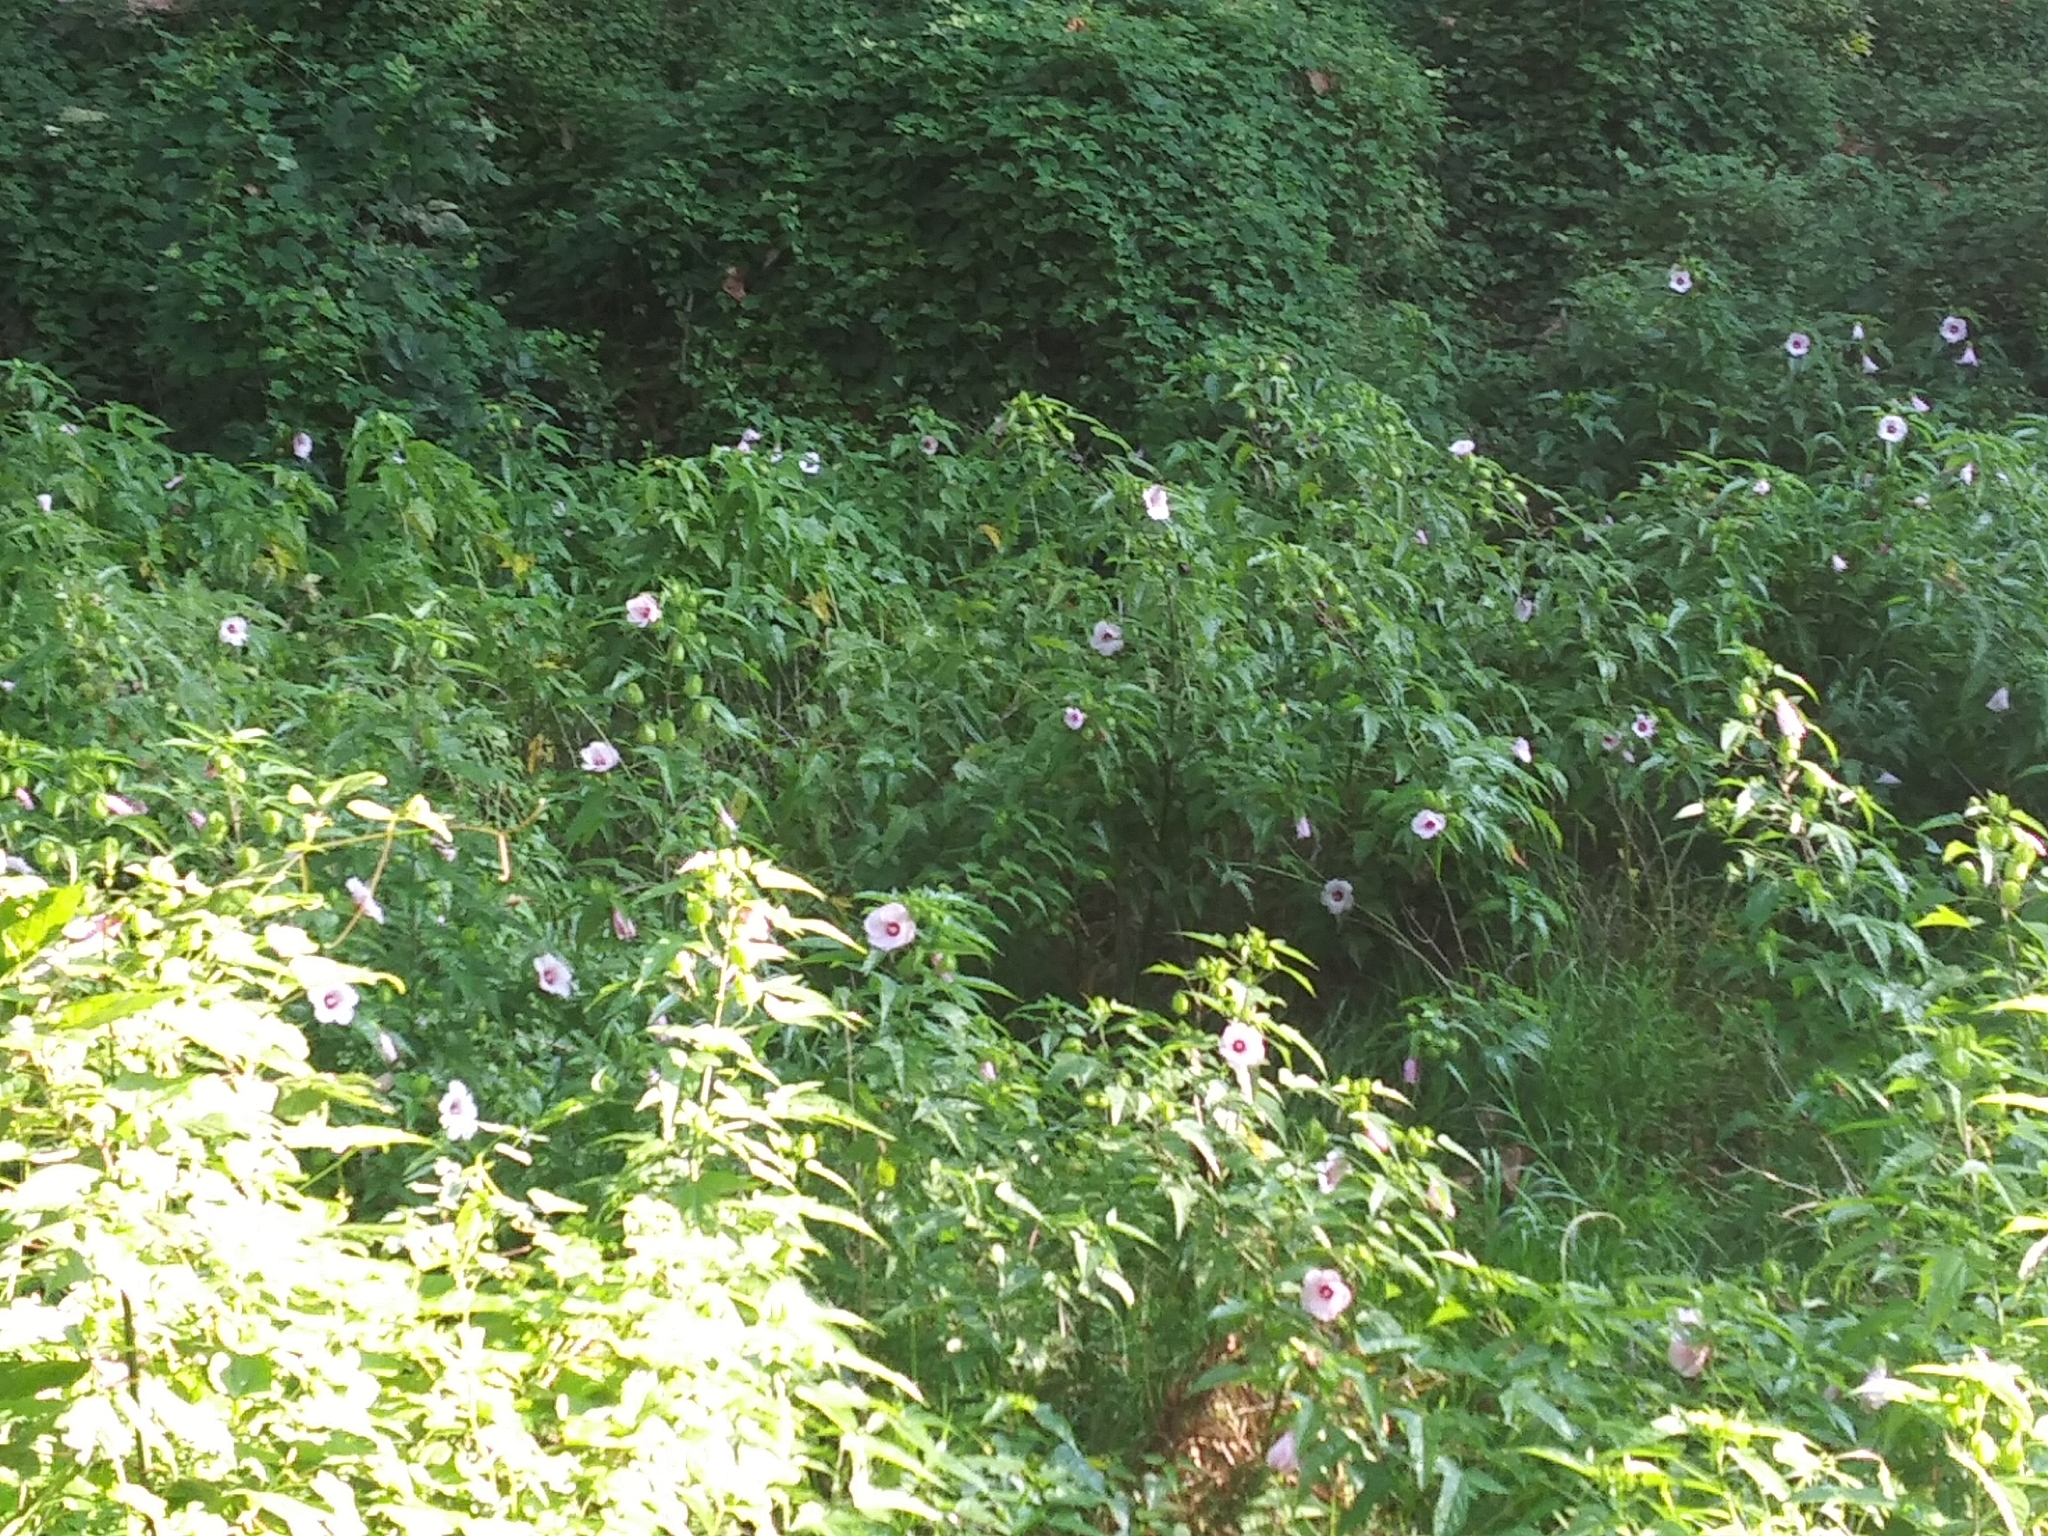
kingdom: Plantae
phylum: Tracheophyta
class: Magnoliopsida
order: Malvales
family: Malvaceae
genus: Hibiscus
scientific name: Hibiscus laevis
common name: Scarlet rose-mallow
